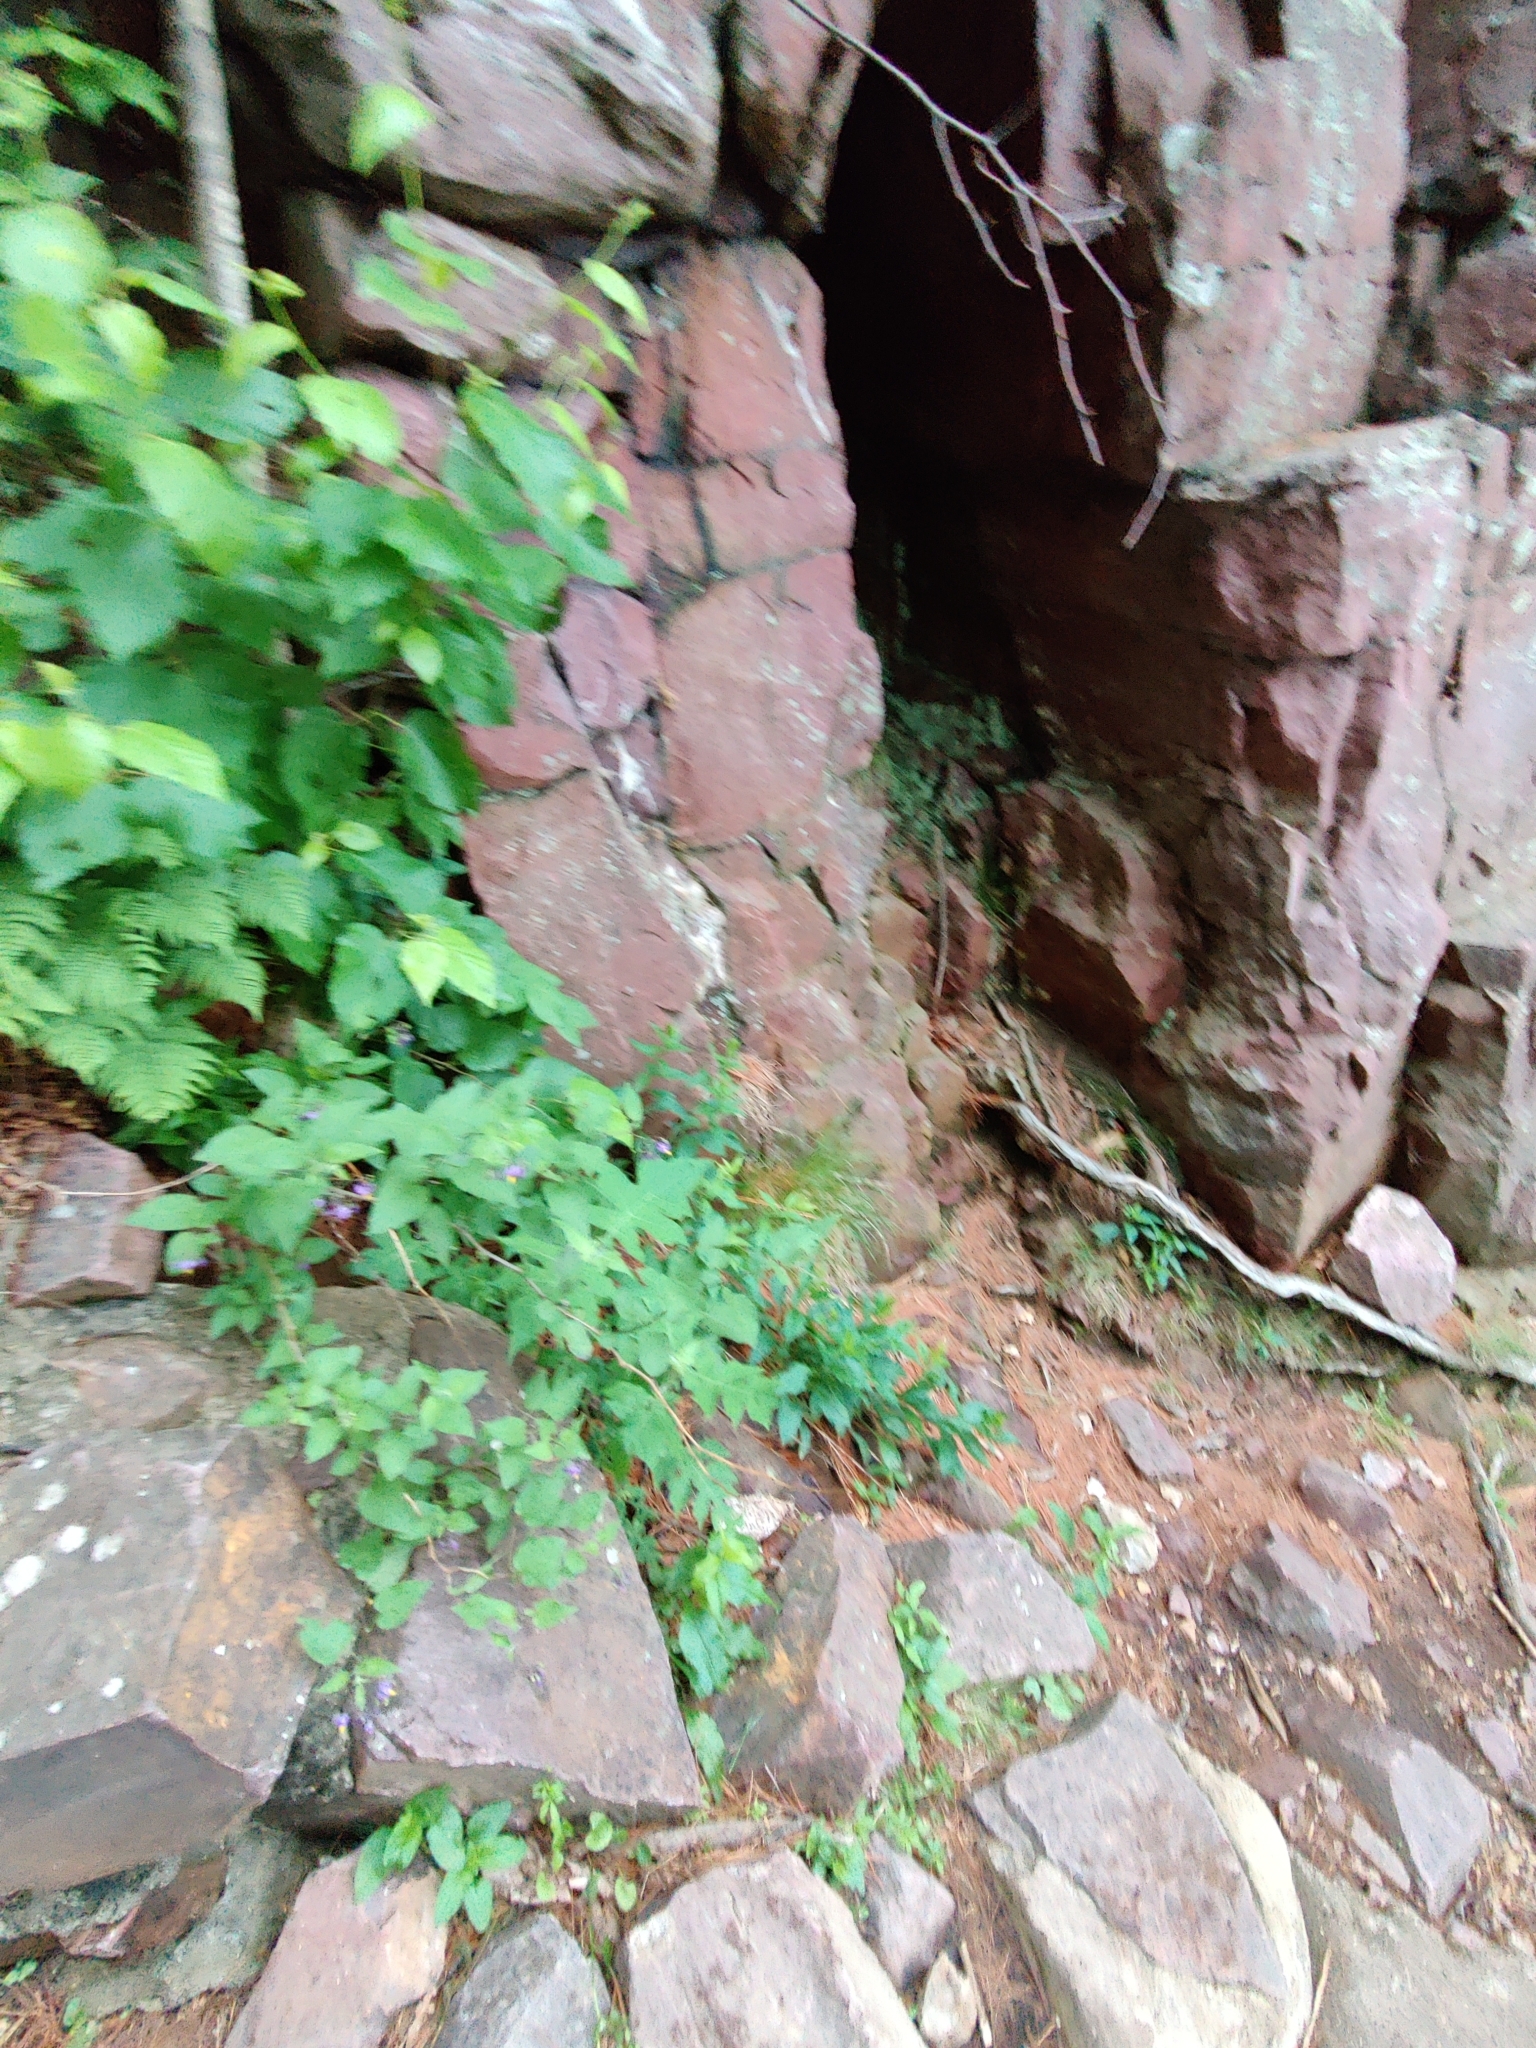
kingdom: Plantae
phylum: Tracheophyta
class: Magnoliopsida
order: Solanales
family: Solanaceae
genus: Solanum
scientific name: Solanum dulcamara
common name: Climbing nightshade
